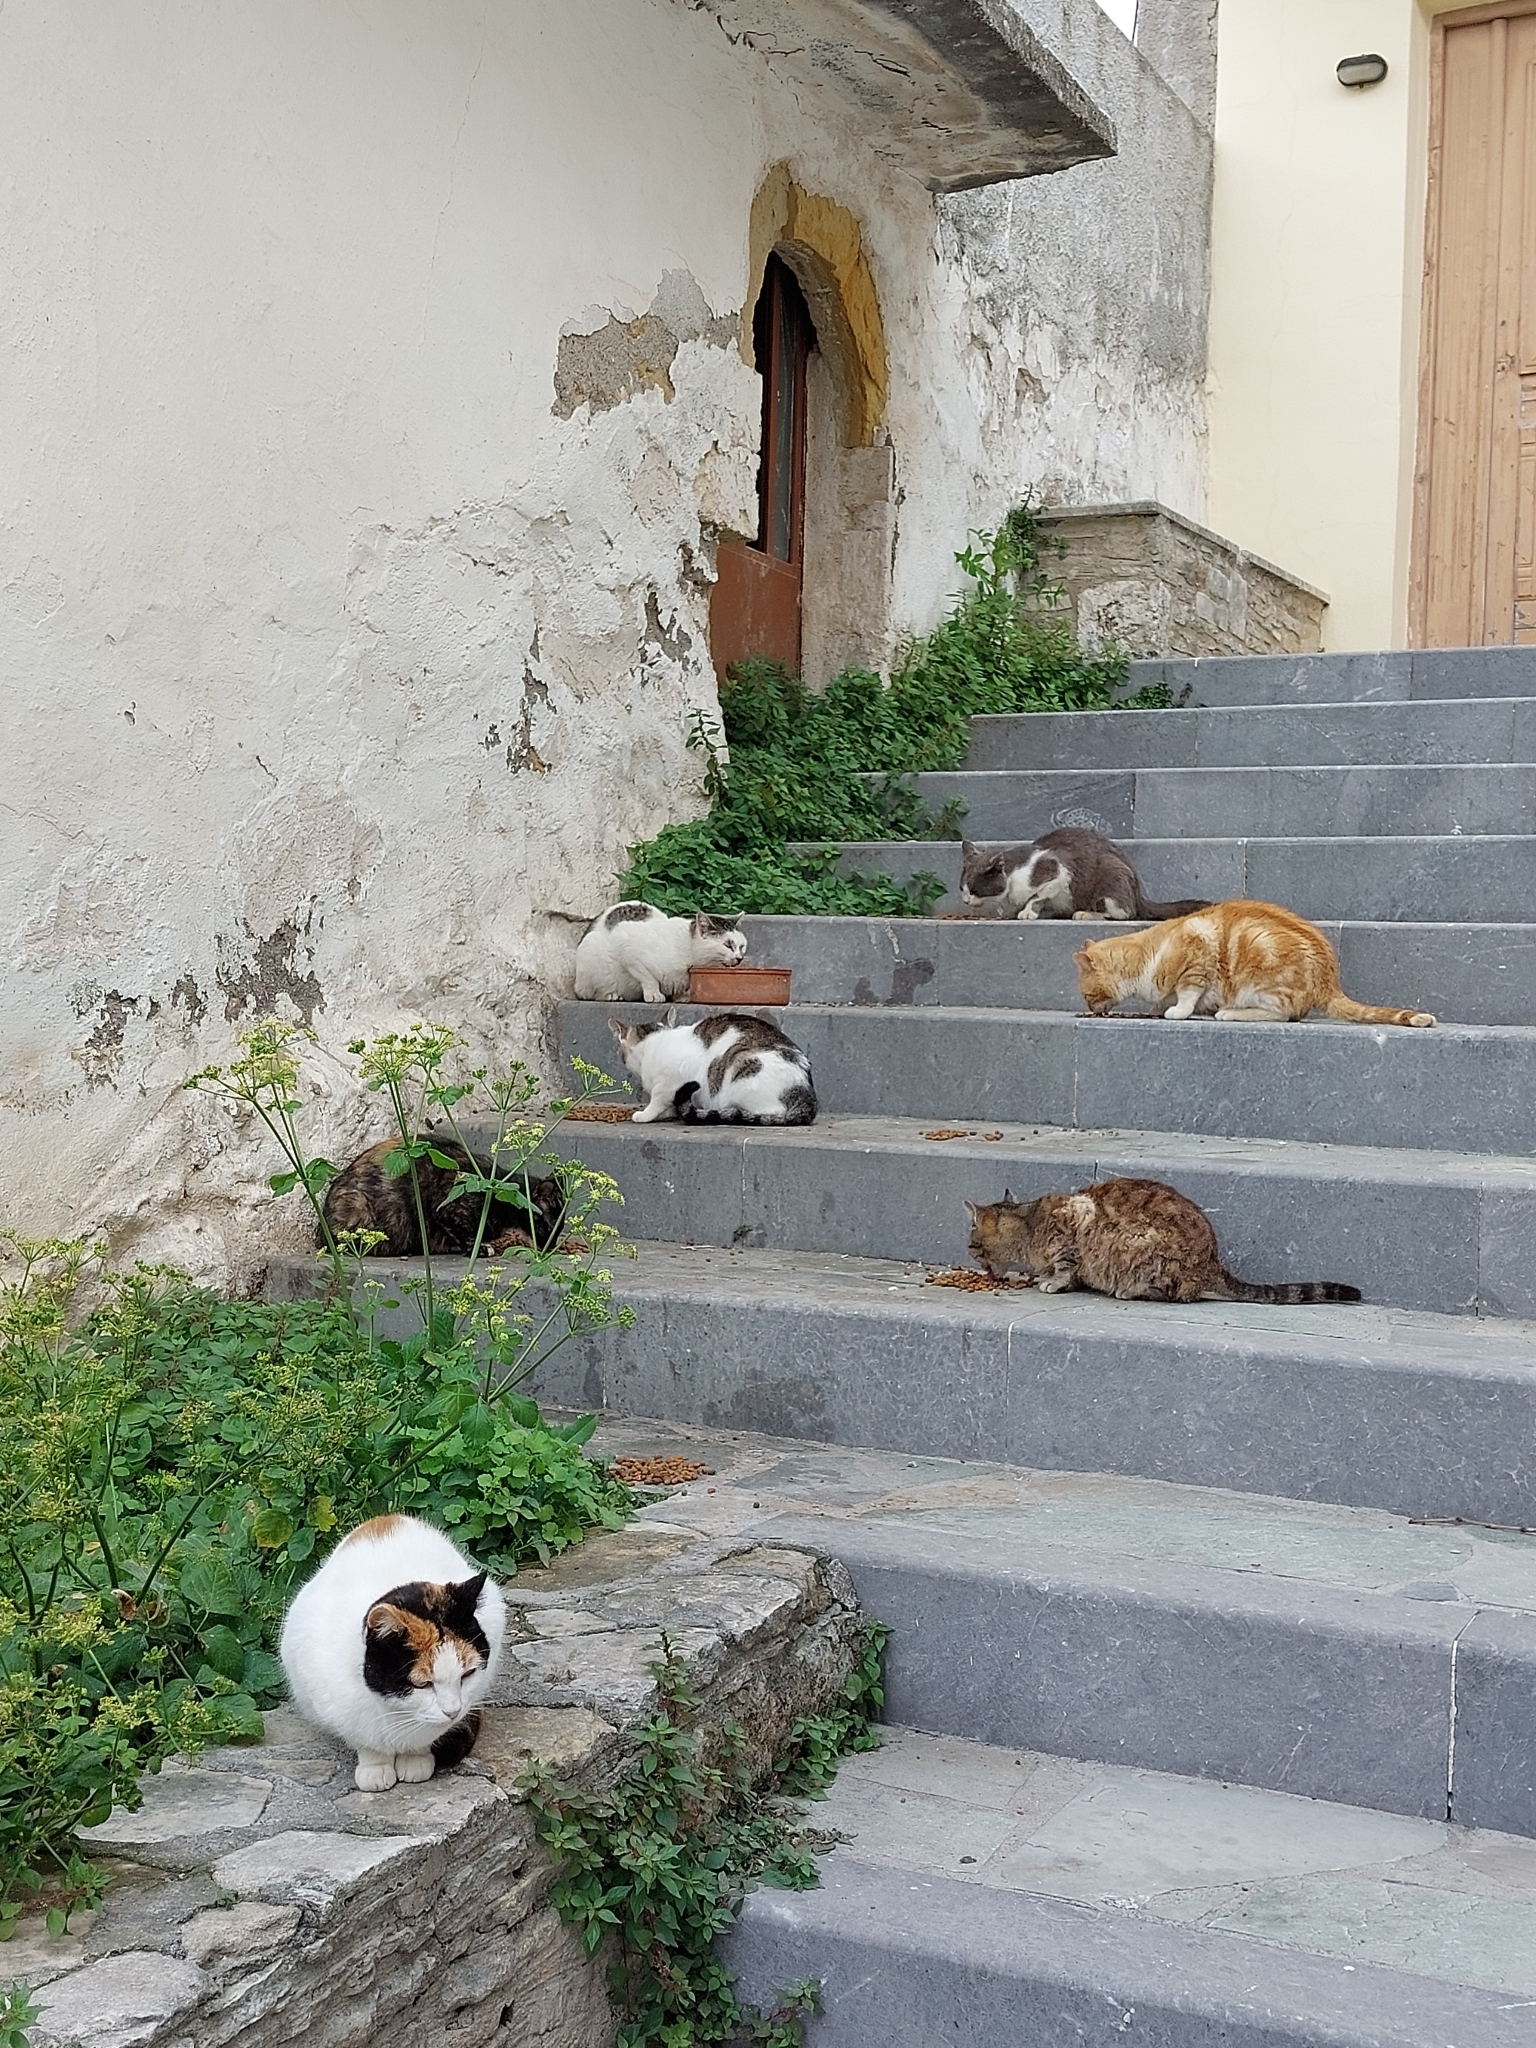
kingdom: Animalia
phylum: Chordata
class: Mammalia
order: Carnivora
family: Felidae
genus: Felis
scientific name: Felis catus
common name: Domestic cat
